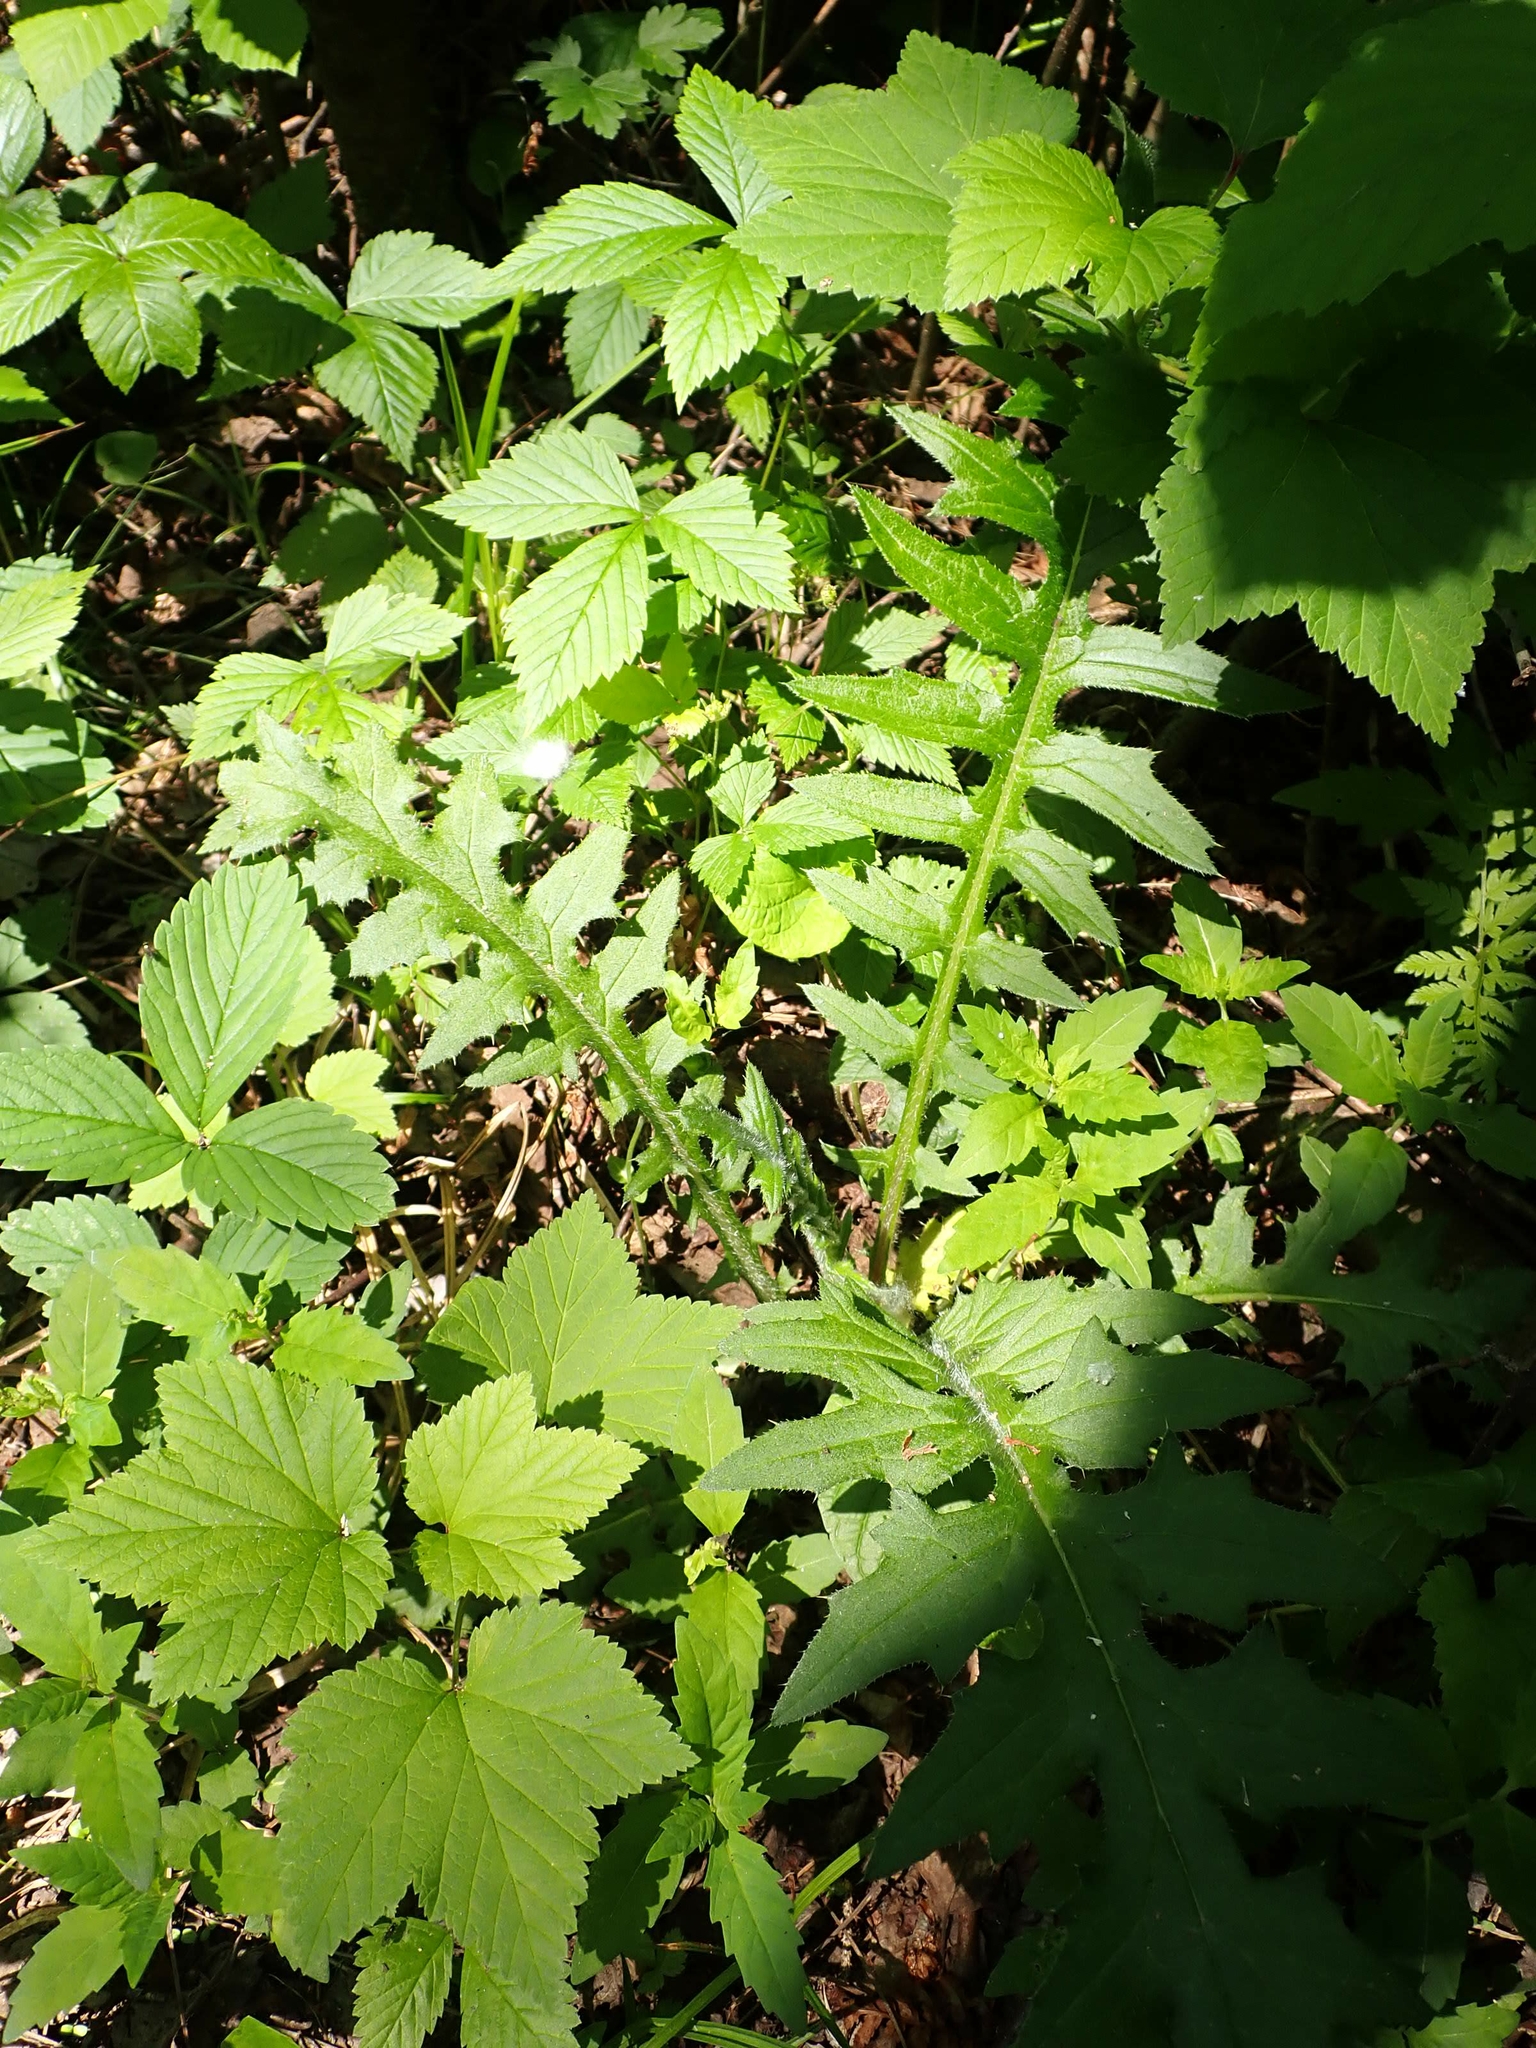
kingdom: Plantae
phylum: Tracheophyta
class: Magnoliopsida
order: Asterales
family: Asteraceae
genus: Cirsium
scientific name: Cirsium muticum
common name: Dunce-nettle
